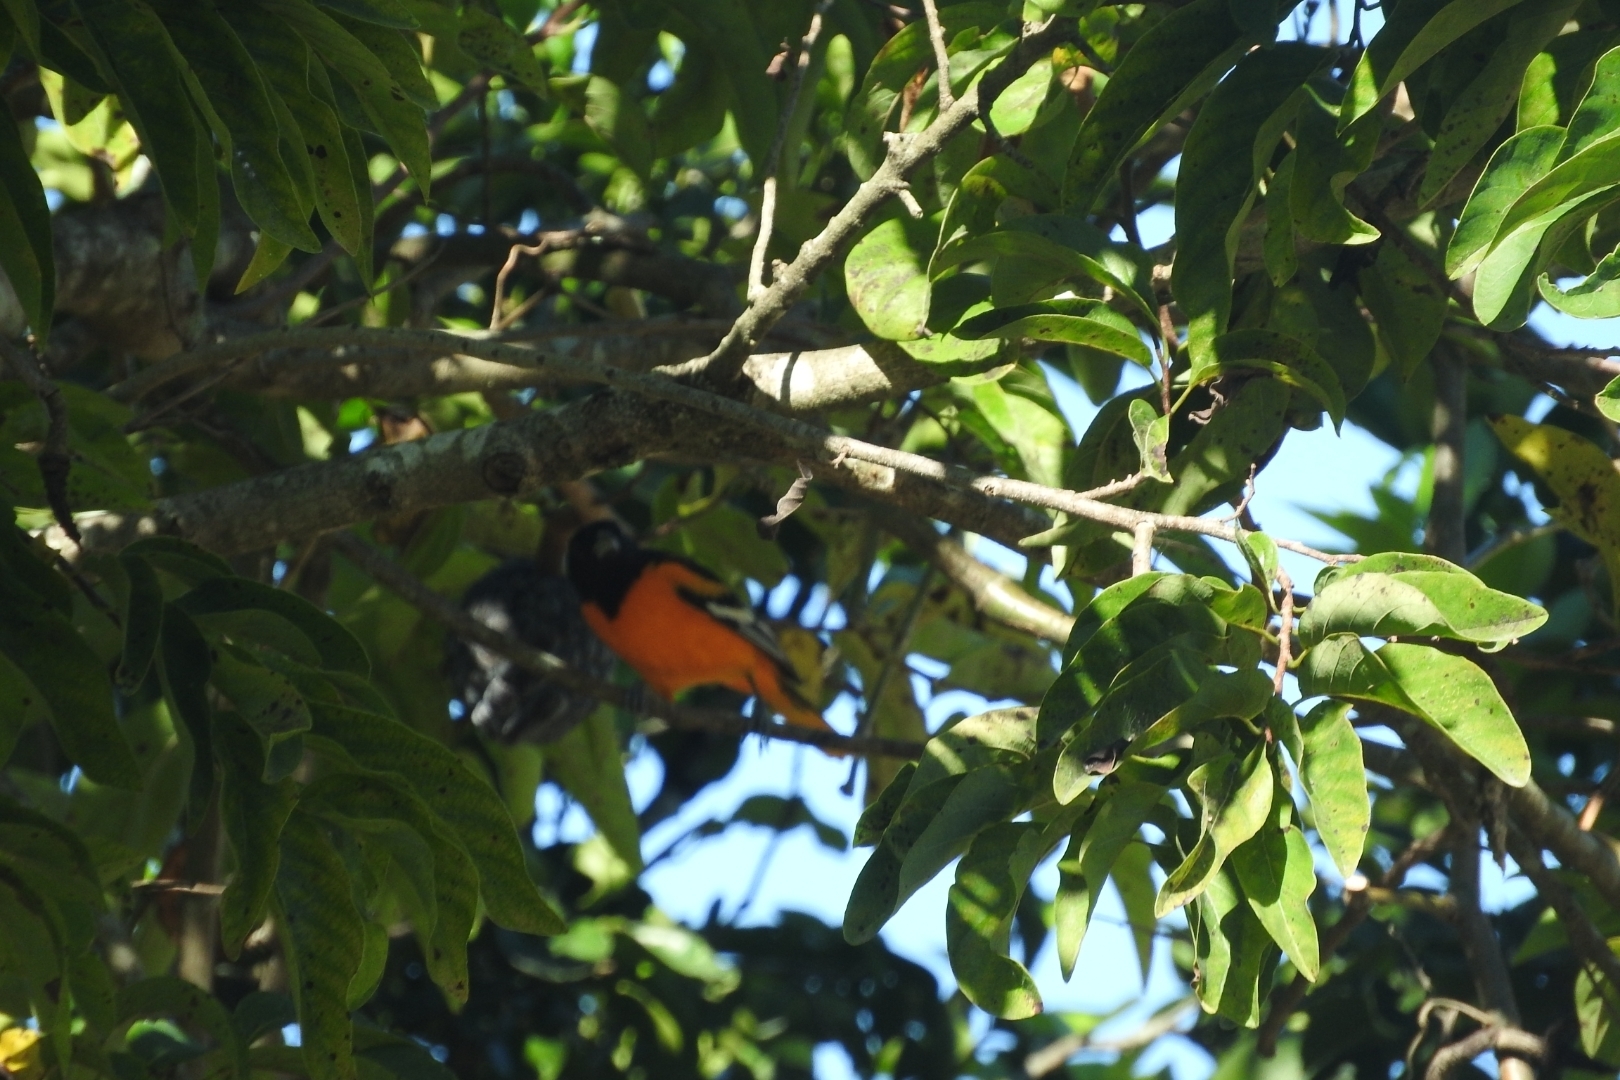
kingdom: Animalia
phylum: Chordata
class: Aves
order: Passeriformes
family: Icteridae
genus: Icterus
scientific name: Icterus galbula
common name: Baltimore oriole
